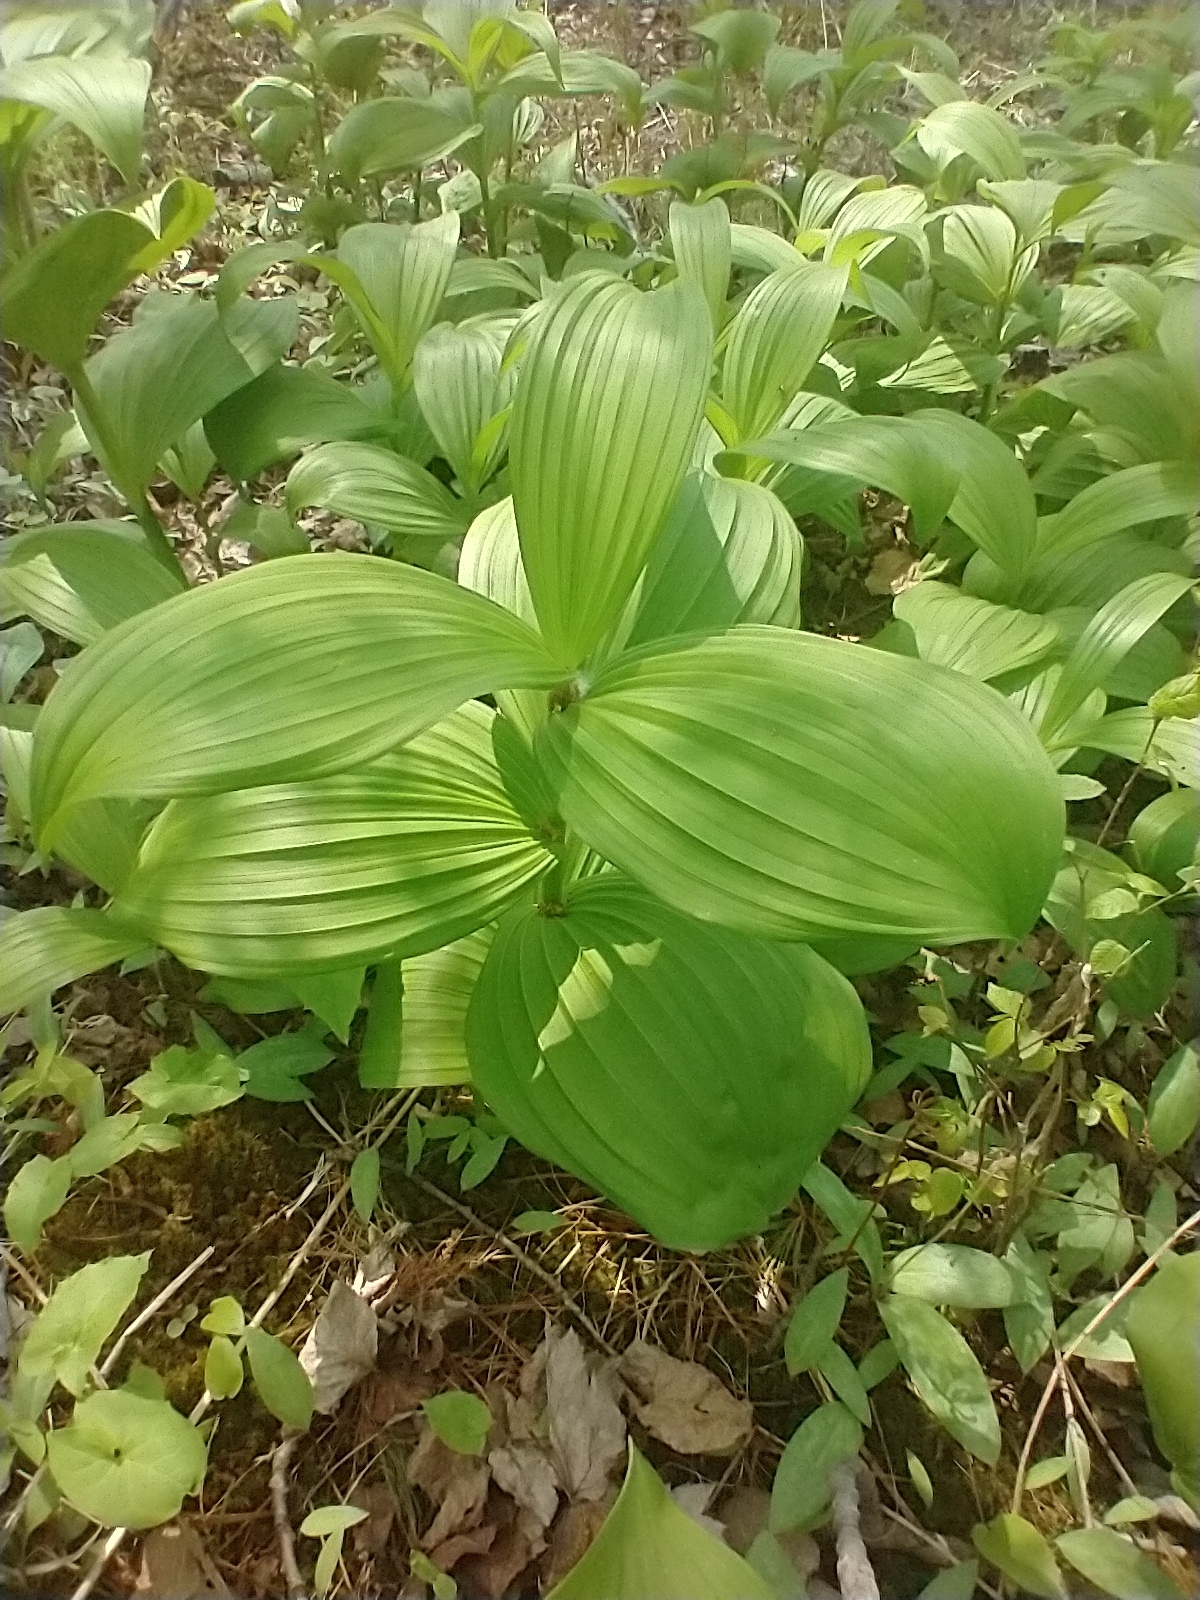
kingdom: Plantae
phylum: Tracheophyta
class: Liliopsida
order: Liliales
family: Melanthiaceae
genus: Veratrum
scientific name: Veratrum viride
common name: American false hellebore
